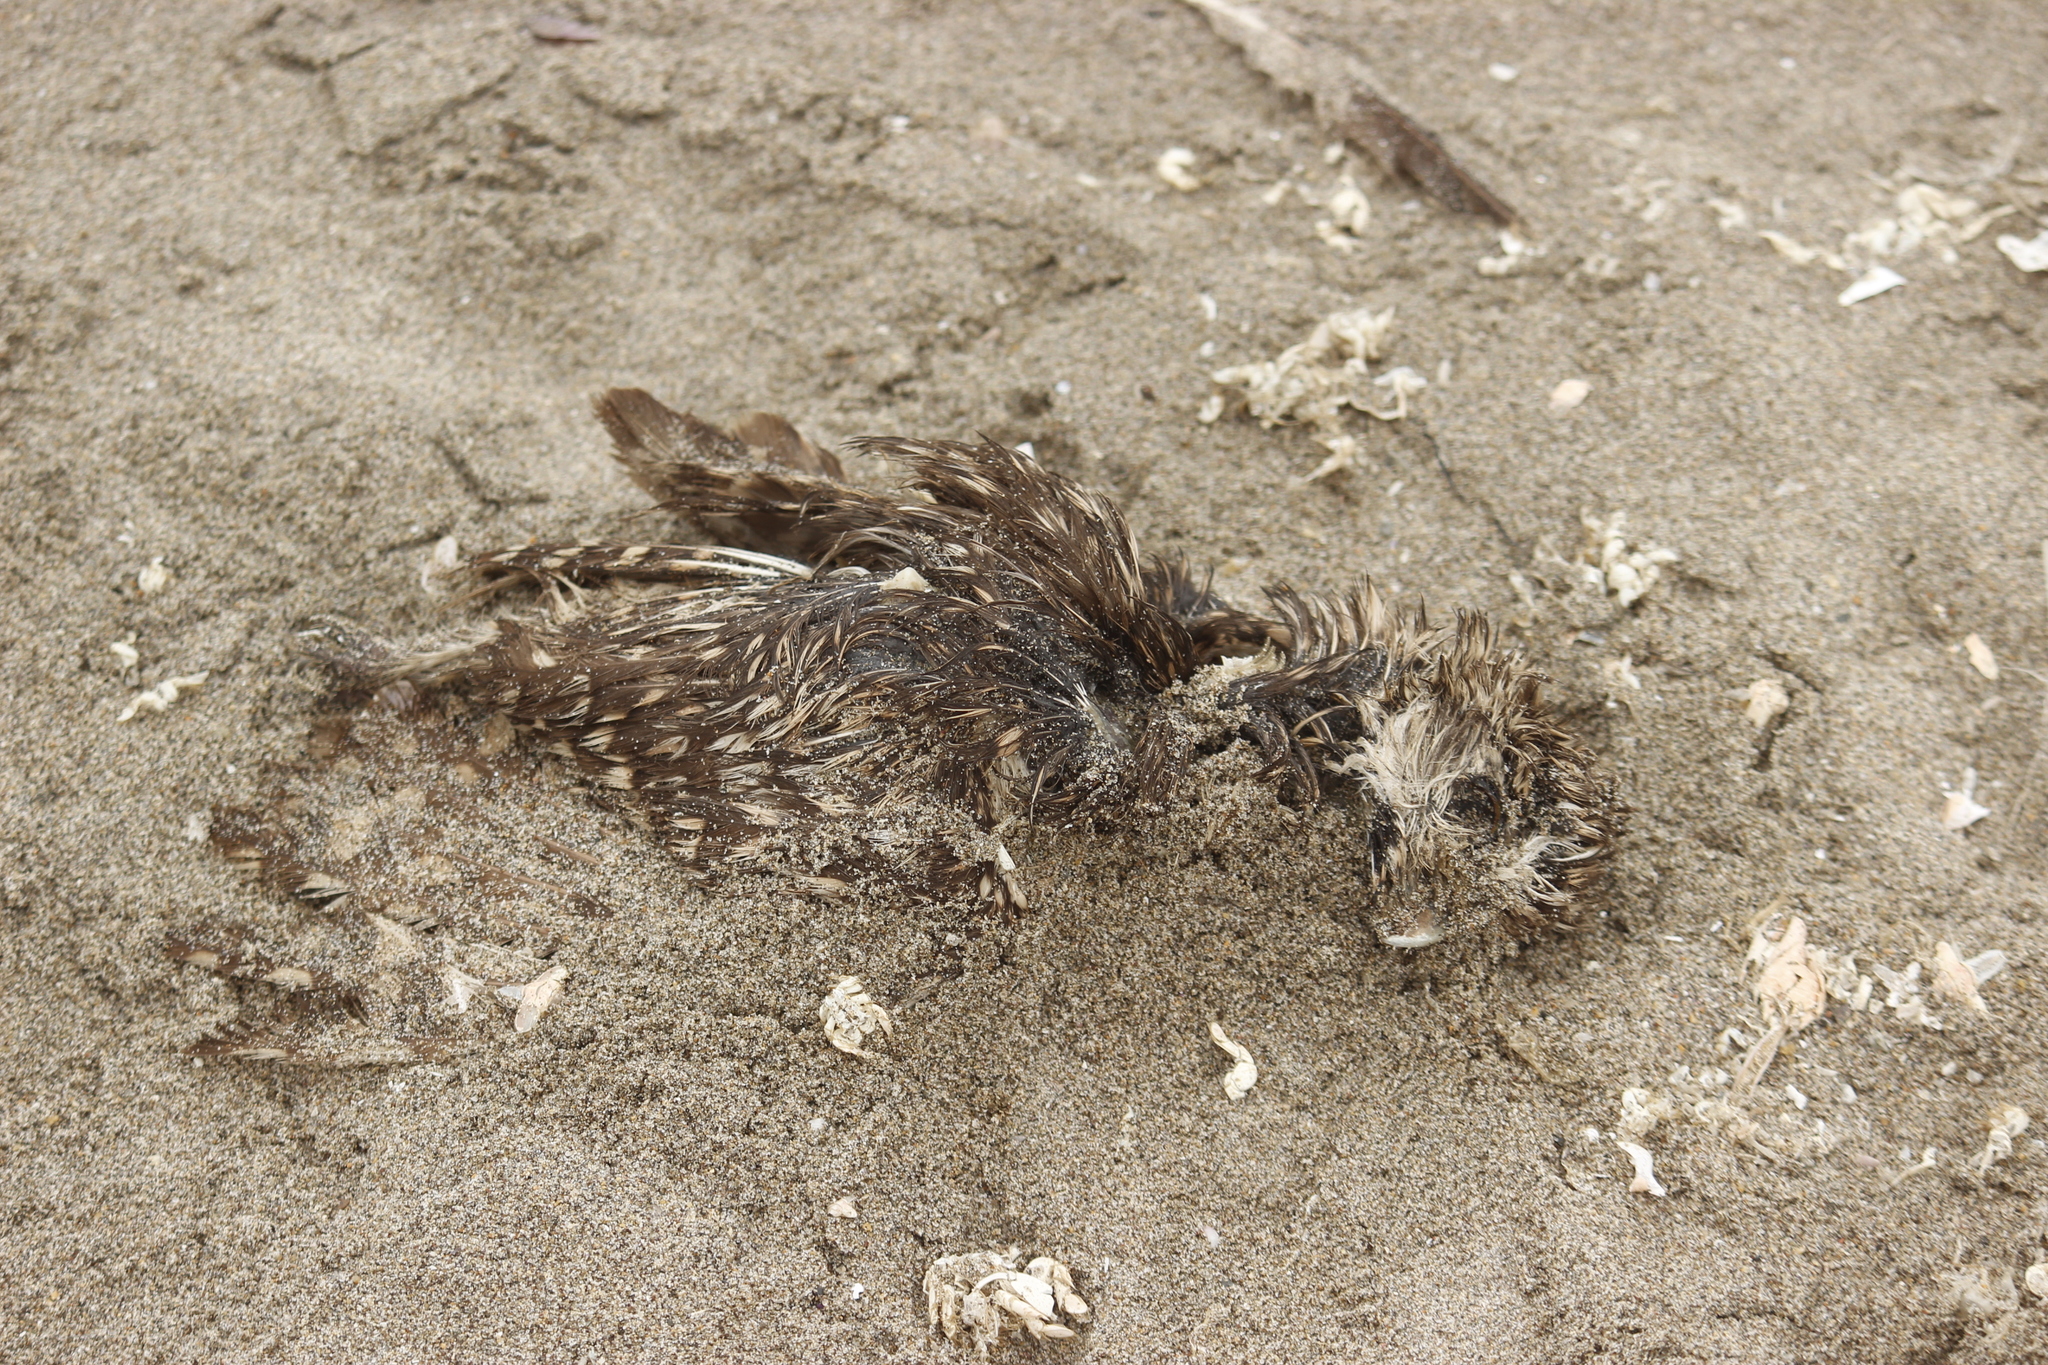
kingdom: Animalia
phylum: Chordata
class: Aves
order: Strigiformes
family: Strigidae
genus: Athene
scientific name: Athene cunicularia
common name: Burrowing owl
